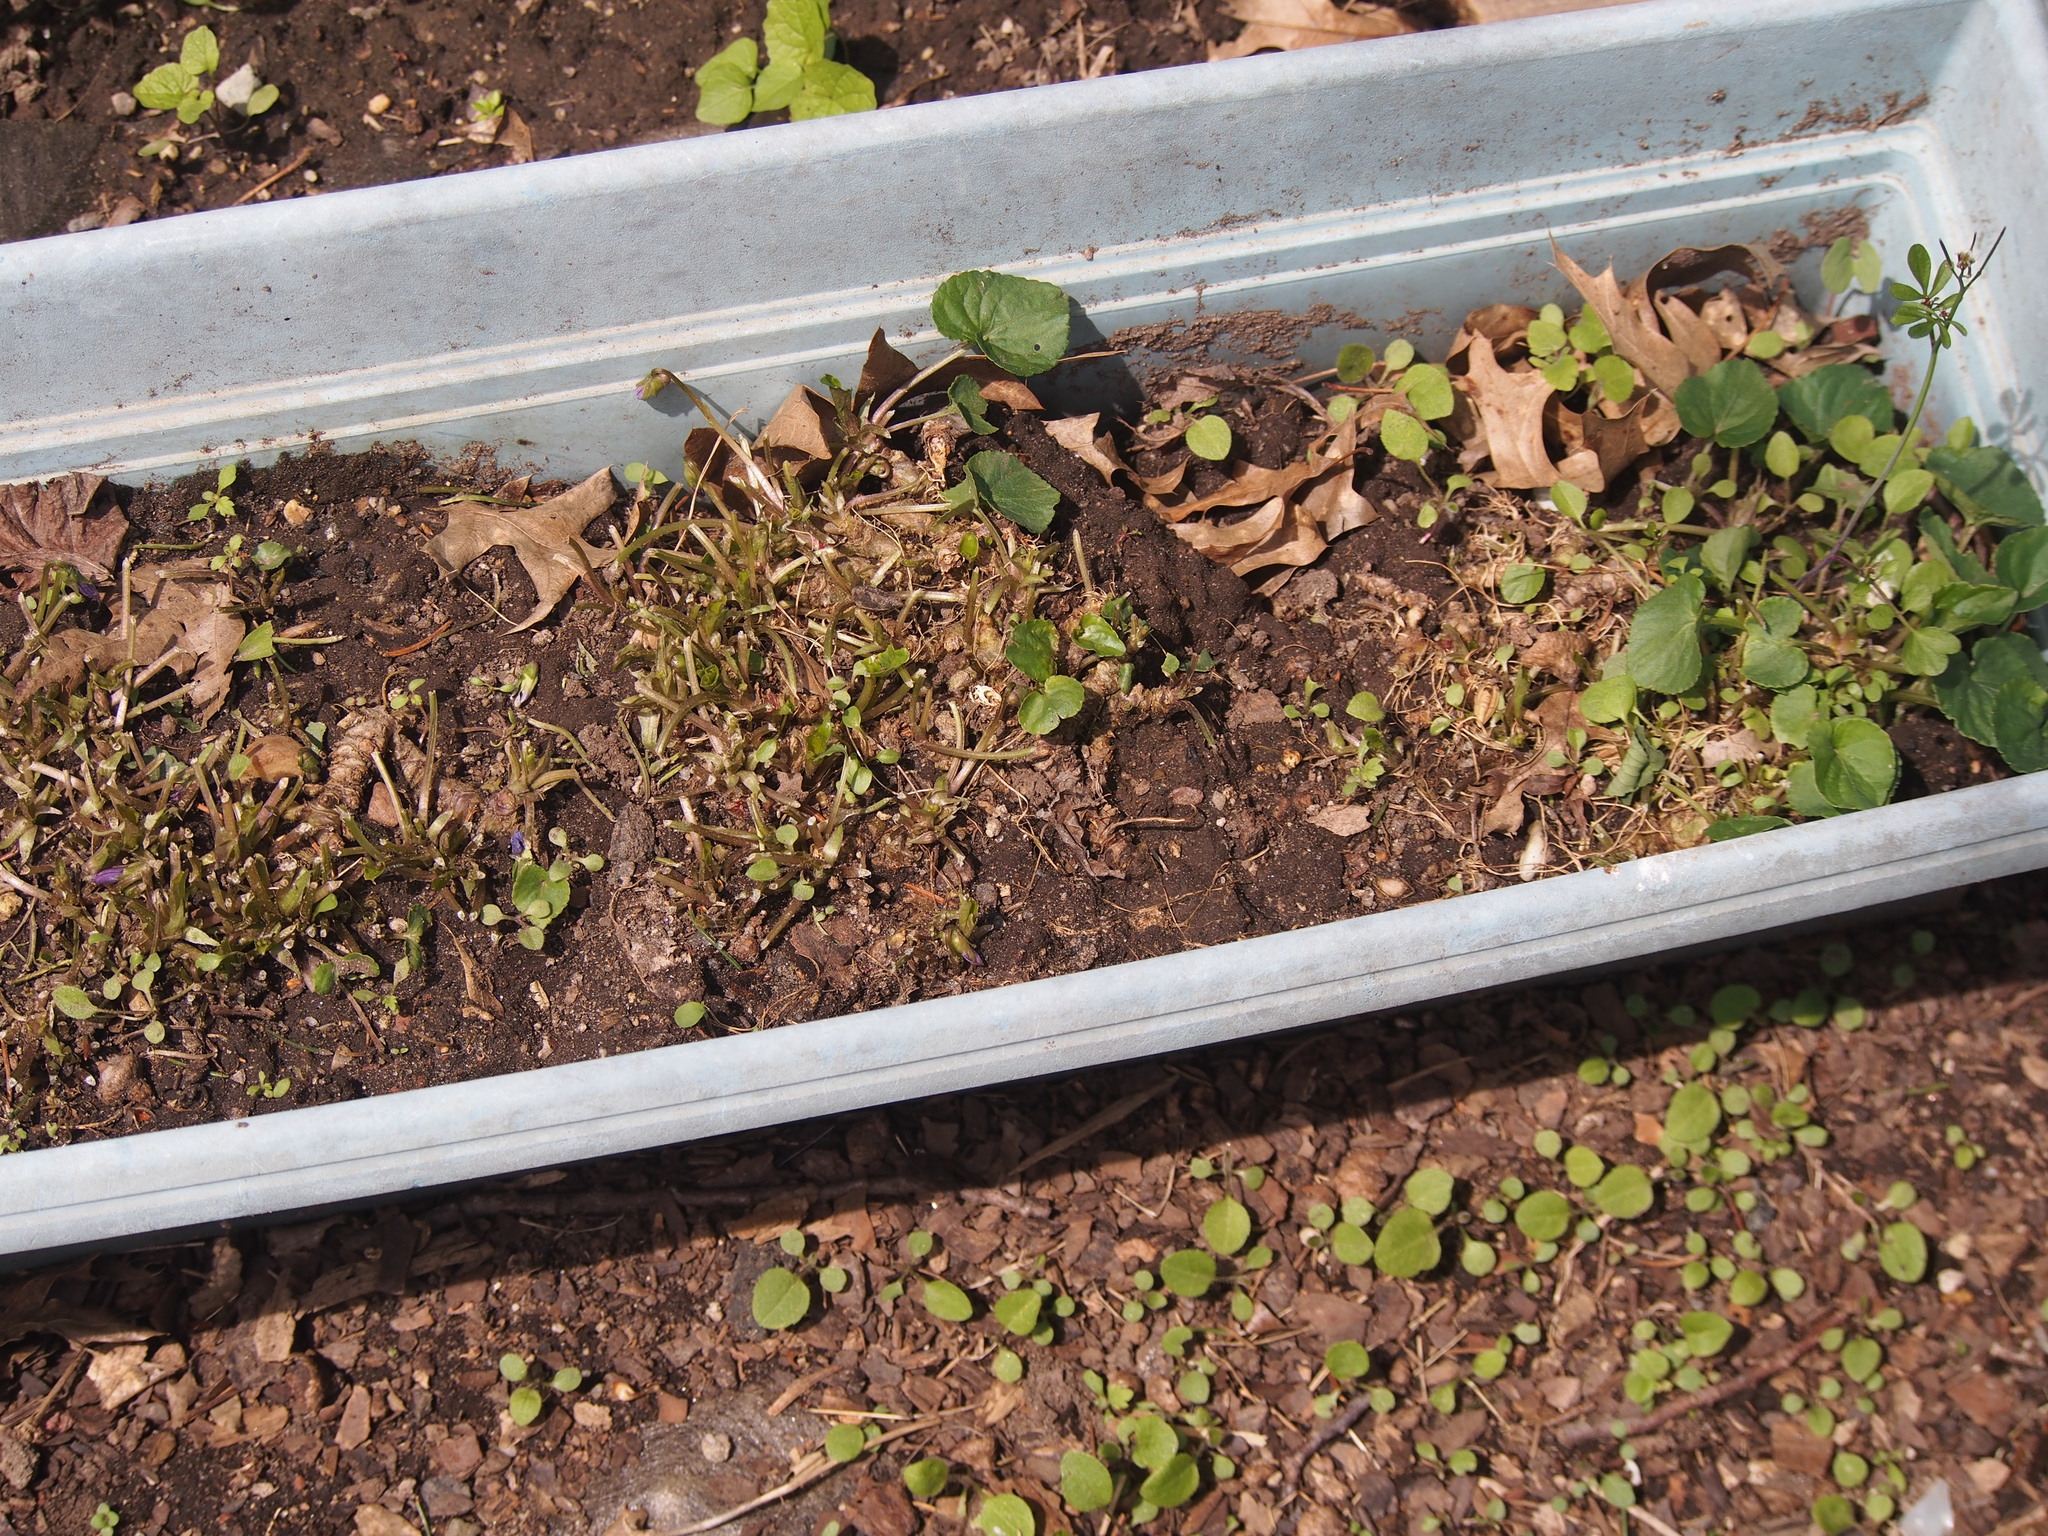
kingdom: Plantae
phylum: Tracheophyta
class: Magnoliopsida
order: Malpighiales
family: Violaceae
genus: Viola
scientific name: Viola sororia
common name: Dooryard violet
